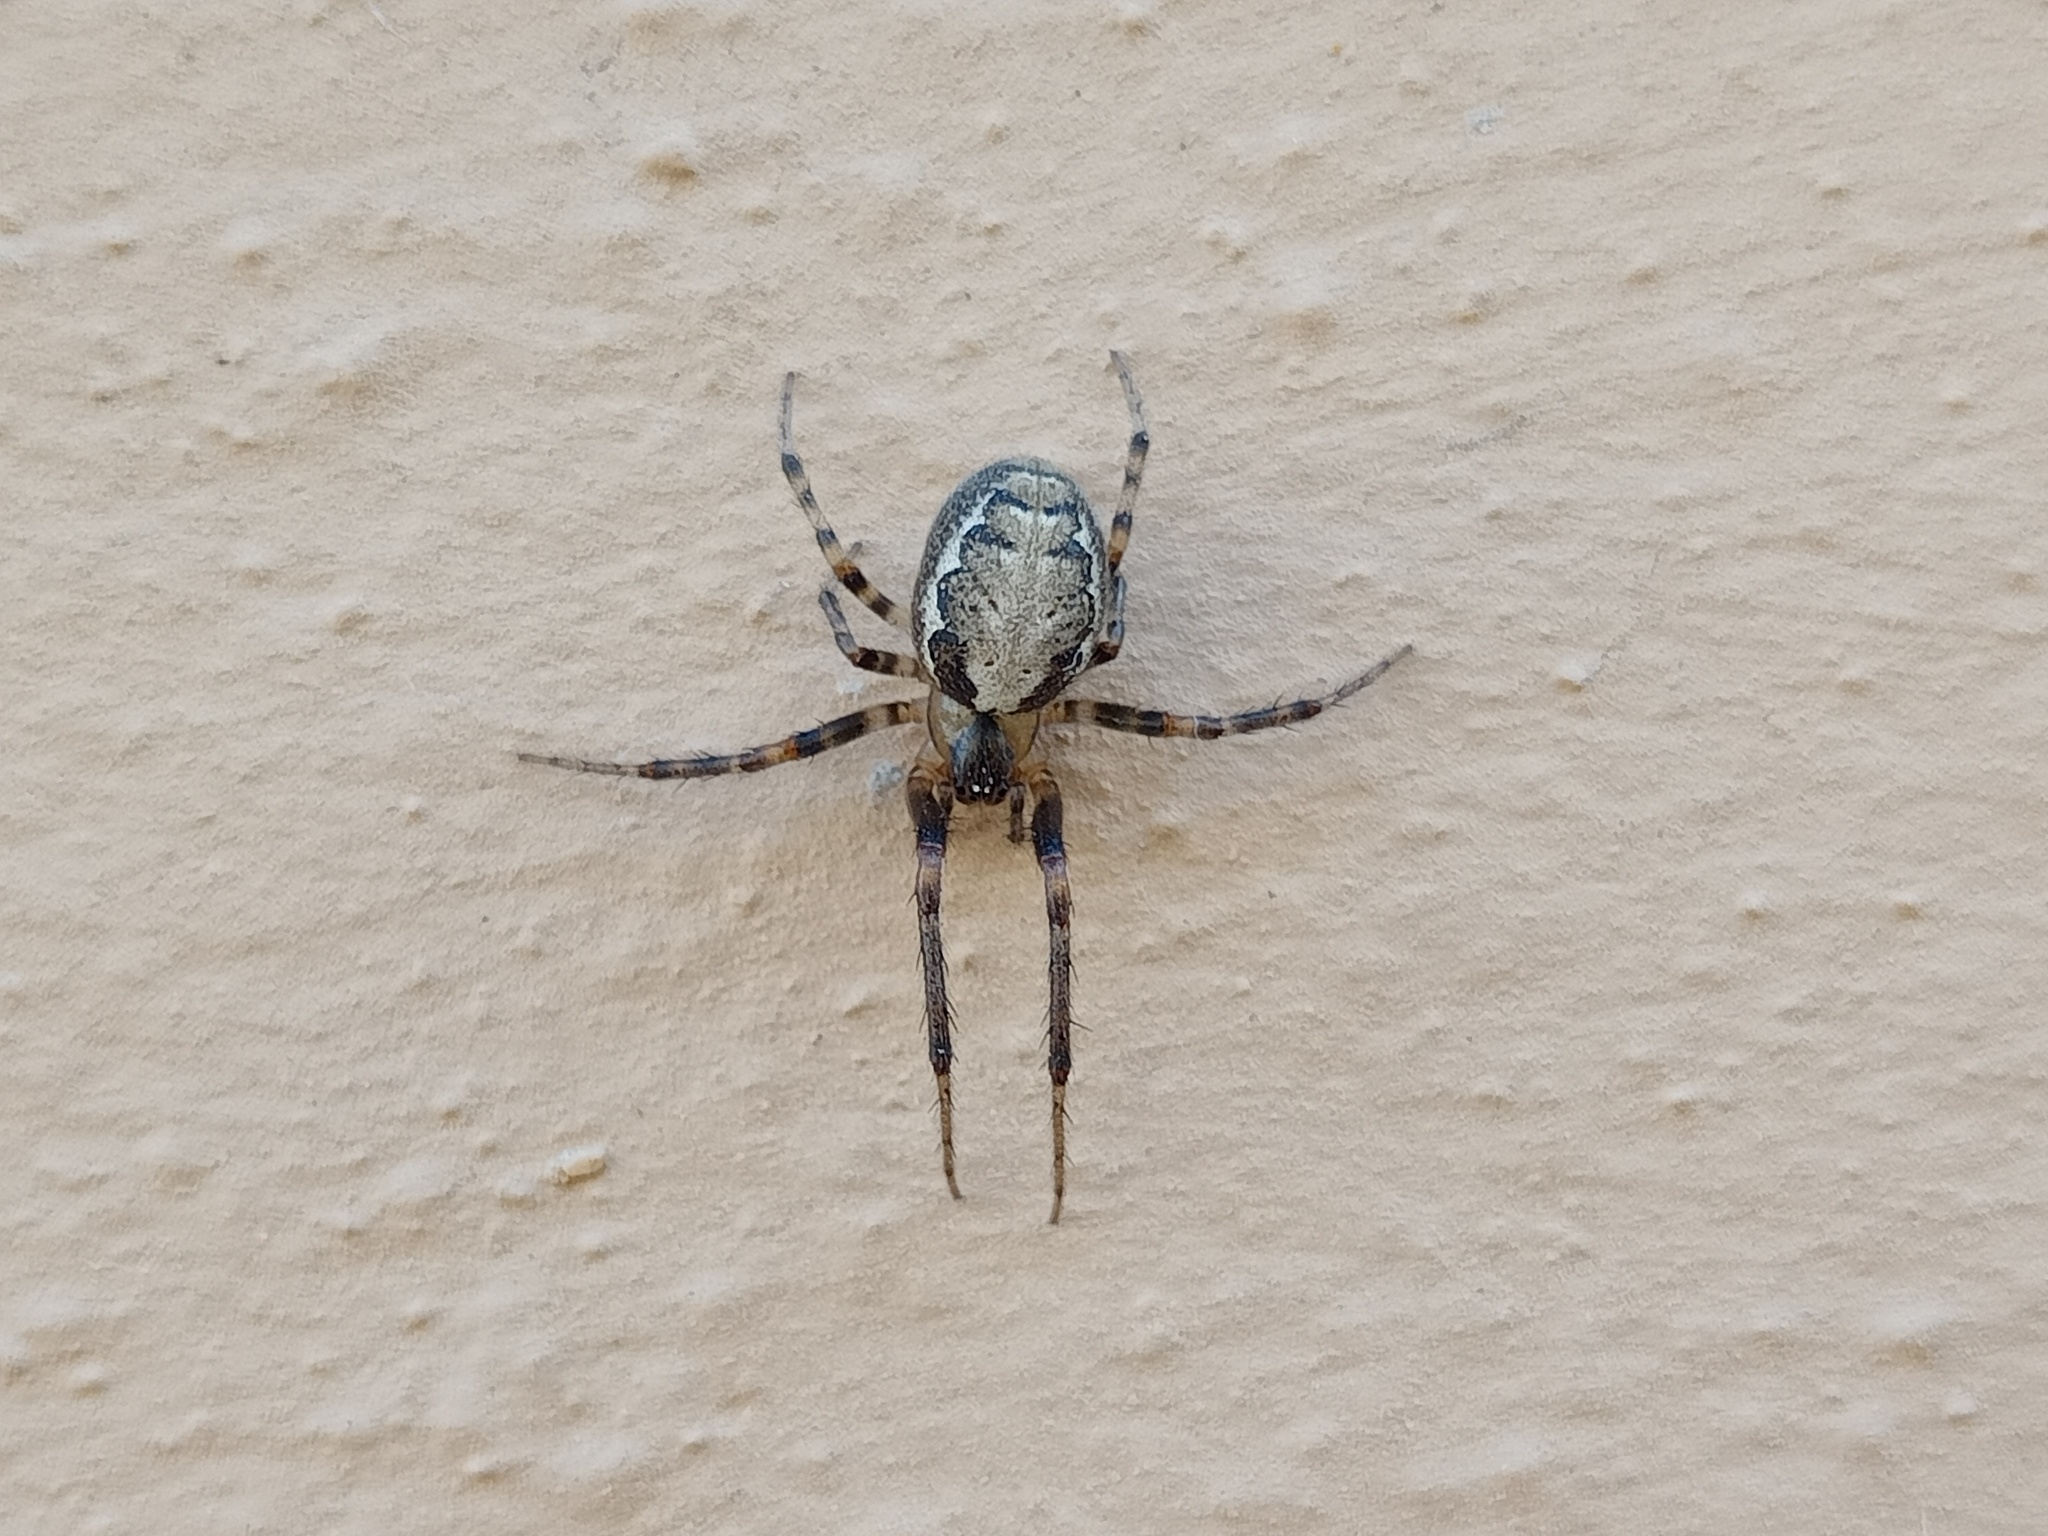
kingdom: Animalia
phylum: Arthropoda
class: Arachnida
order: Araneae
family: Araneidae
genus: Zygiella
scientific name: Zygiella x-notata
